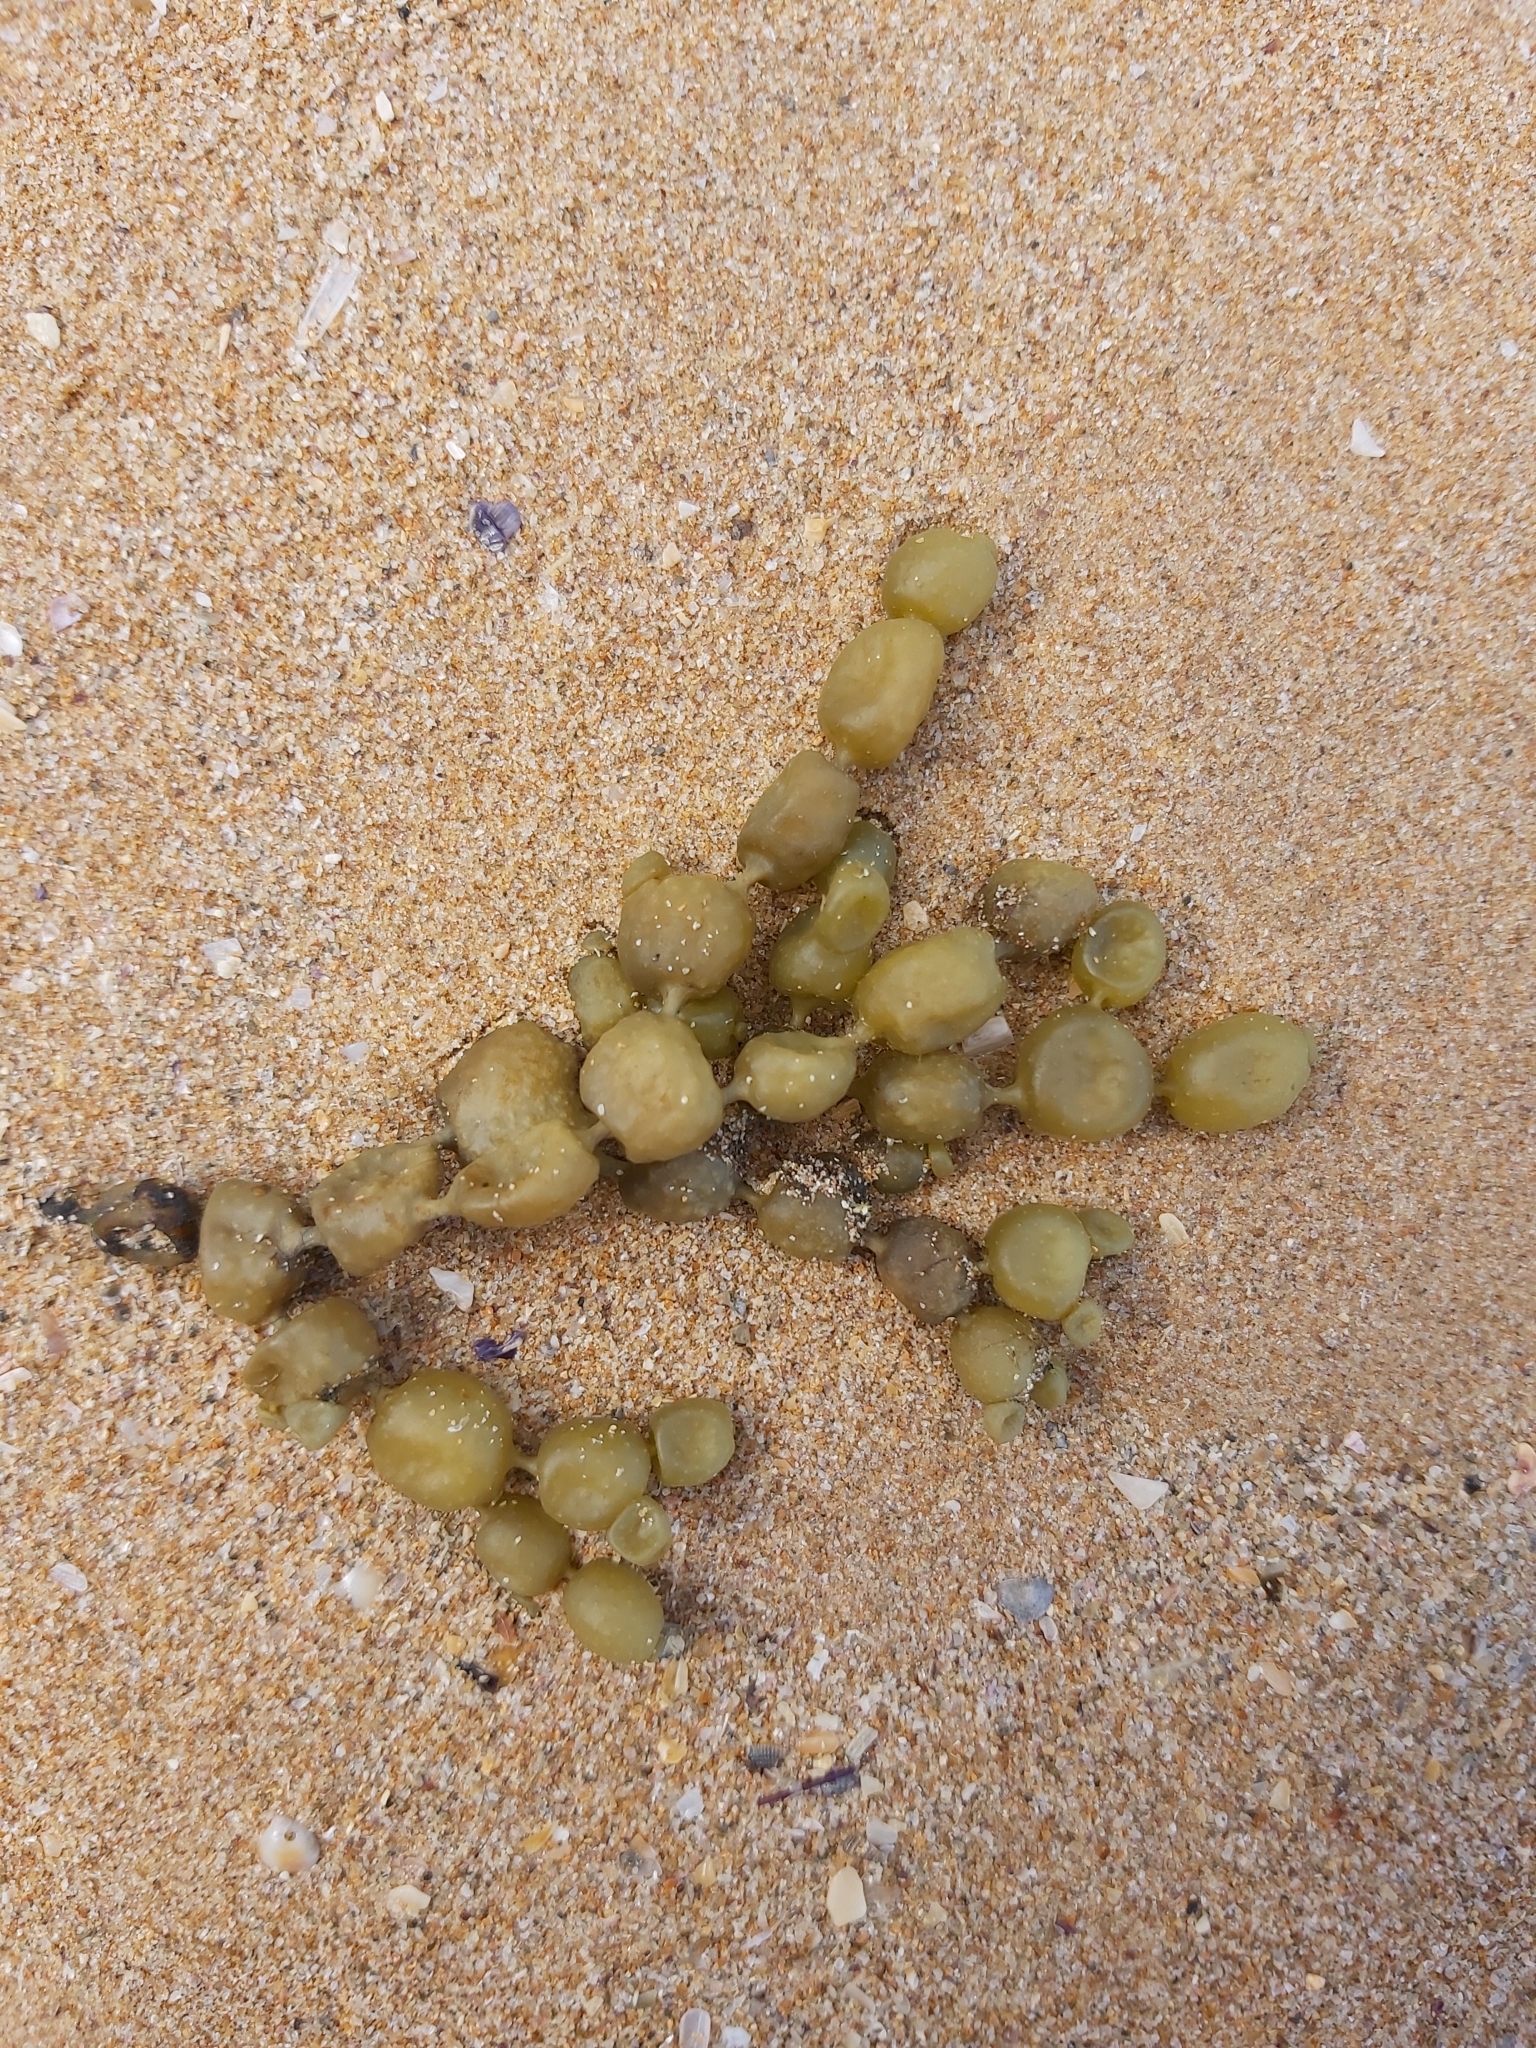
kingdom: Chromista
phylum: Ochrophyta
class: Phaeophyceae
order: Fucales
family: Hormosiraceae
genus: Hormosira
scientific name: Hormosira banksii
